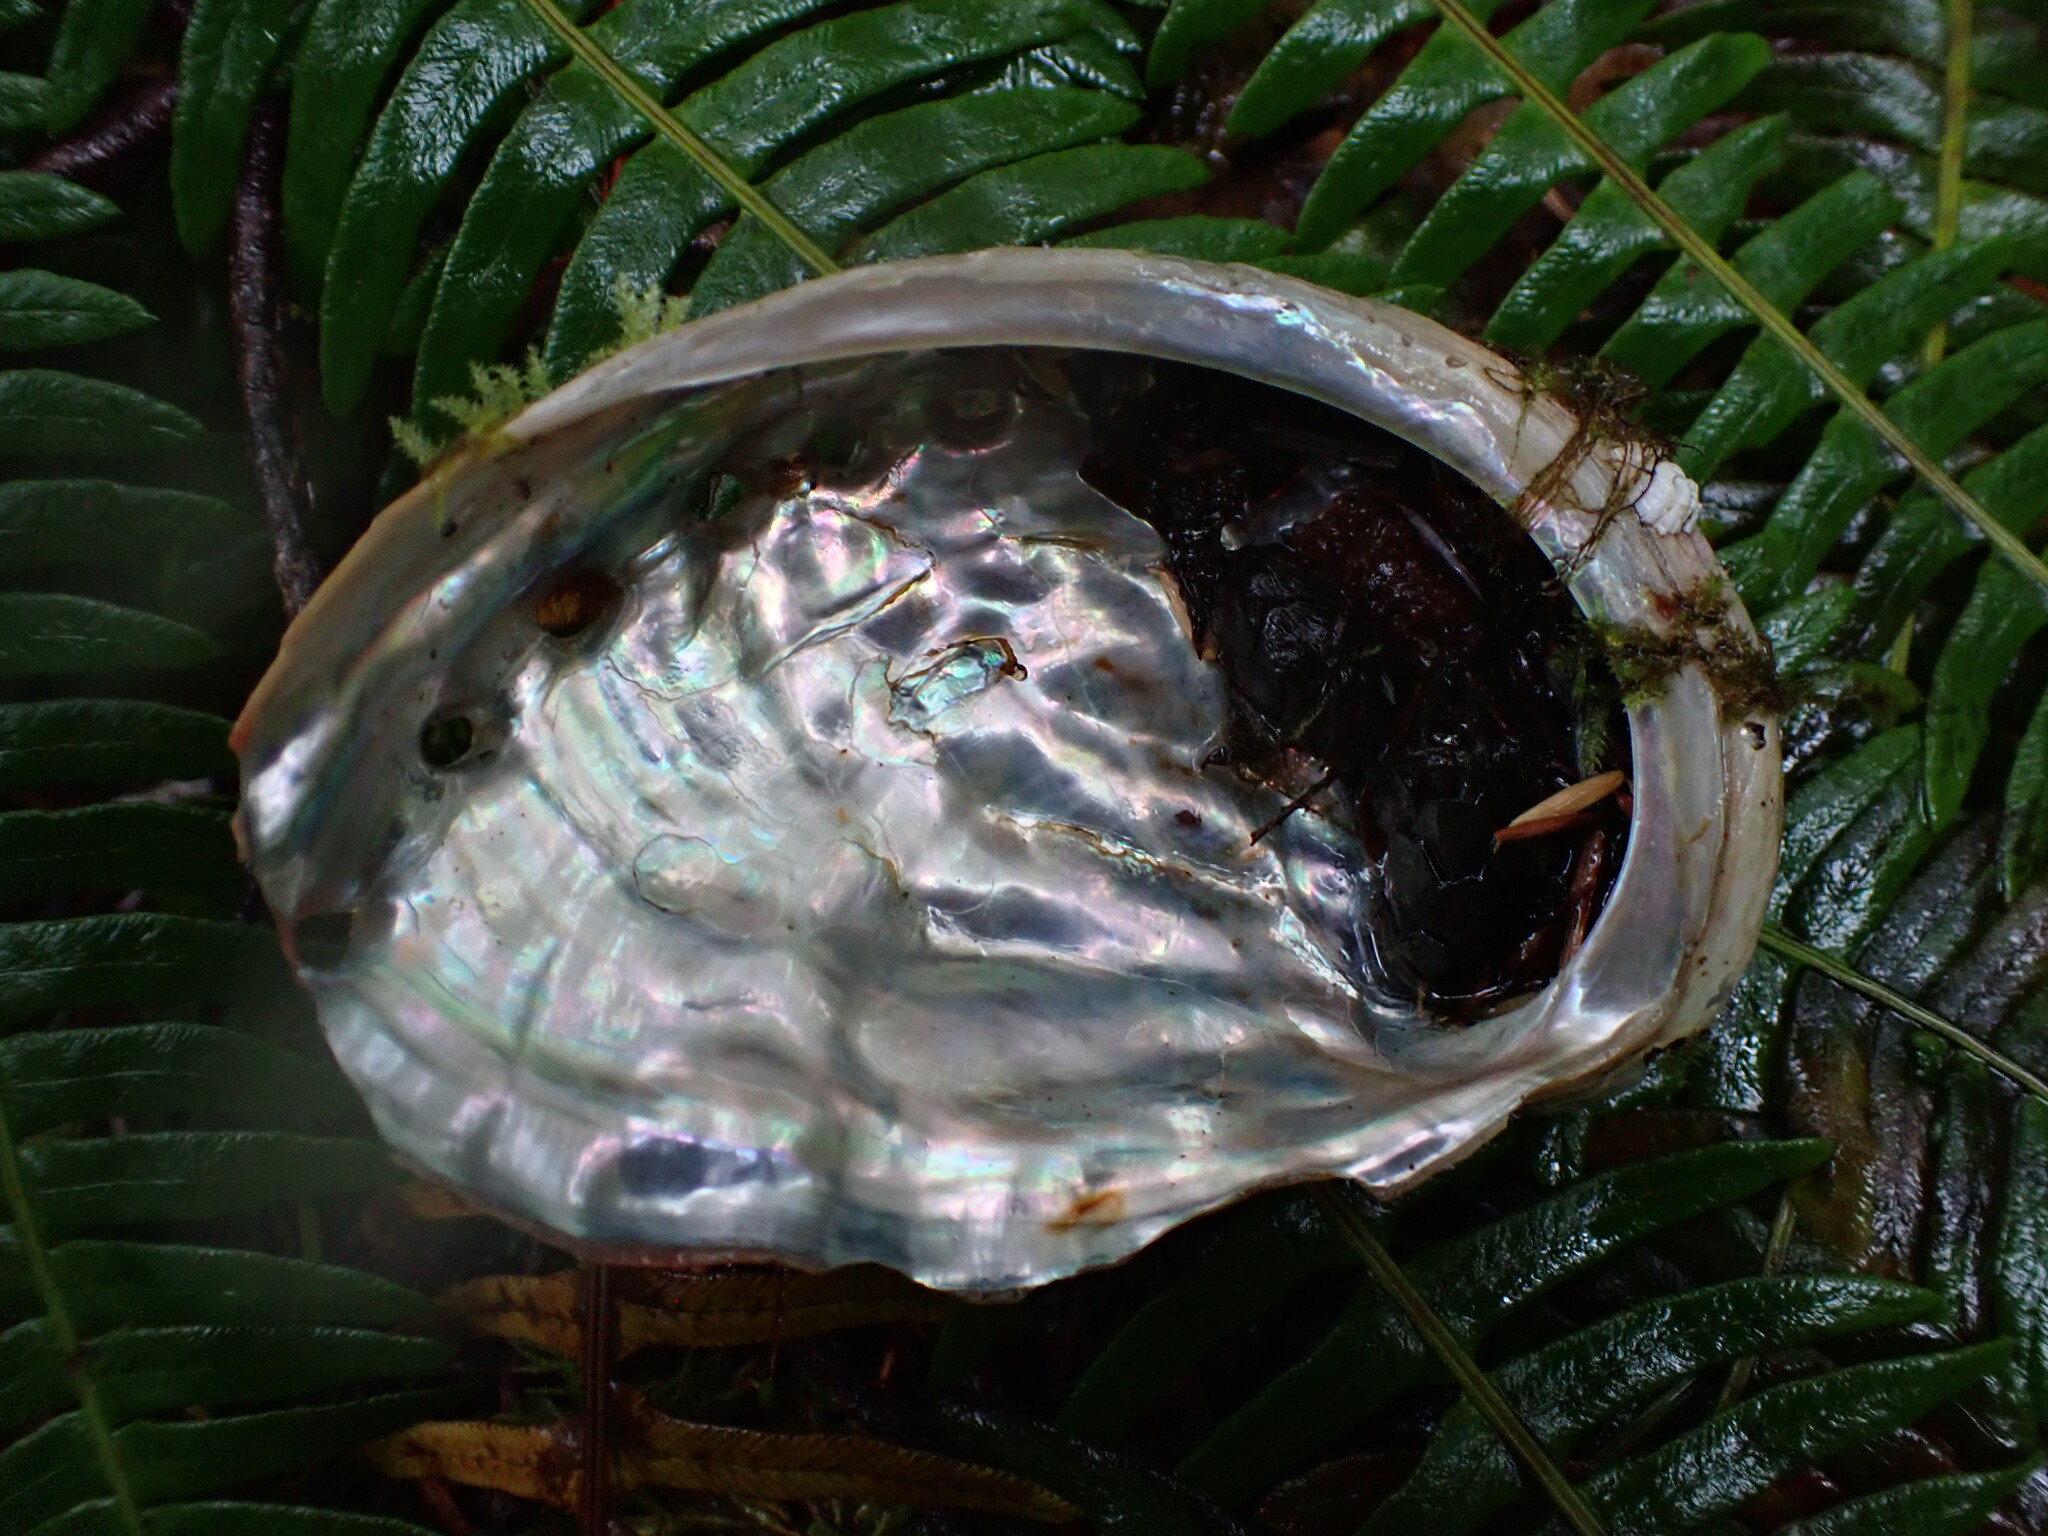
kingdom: Animalia
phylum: Mollusca
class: Gastropoda
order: Lepetellida
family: Haliotidae
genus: Haliotis
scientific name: Haliotis kamtschatkana
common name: Pinto abalone
